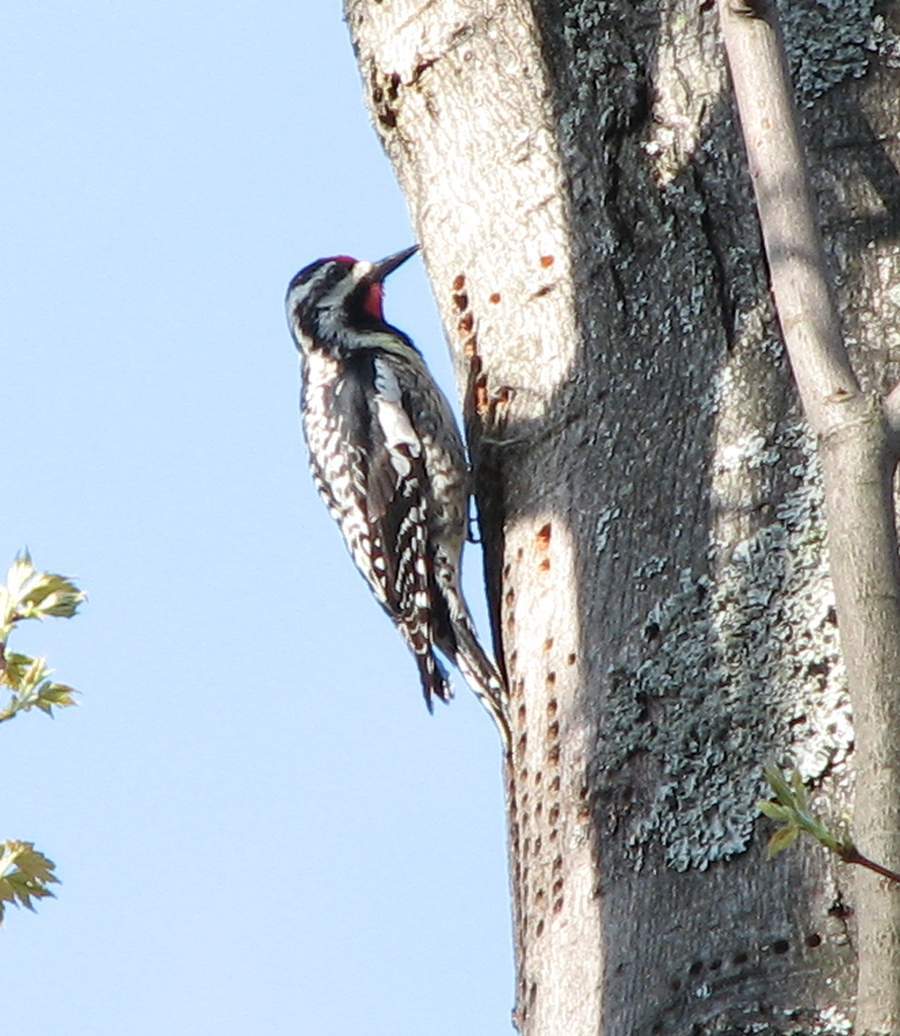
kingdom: Animalia
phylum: Chordata
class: Aves
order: Piciformes
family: Picidae
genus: Sphyrapicus
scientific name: Sphyrapicus varius
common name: Yellow-bellied sapsucker
